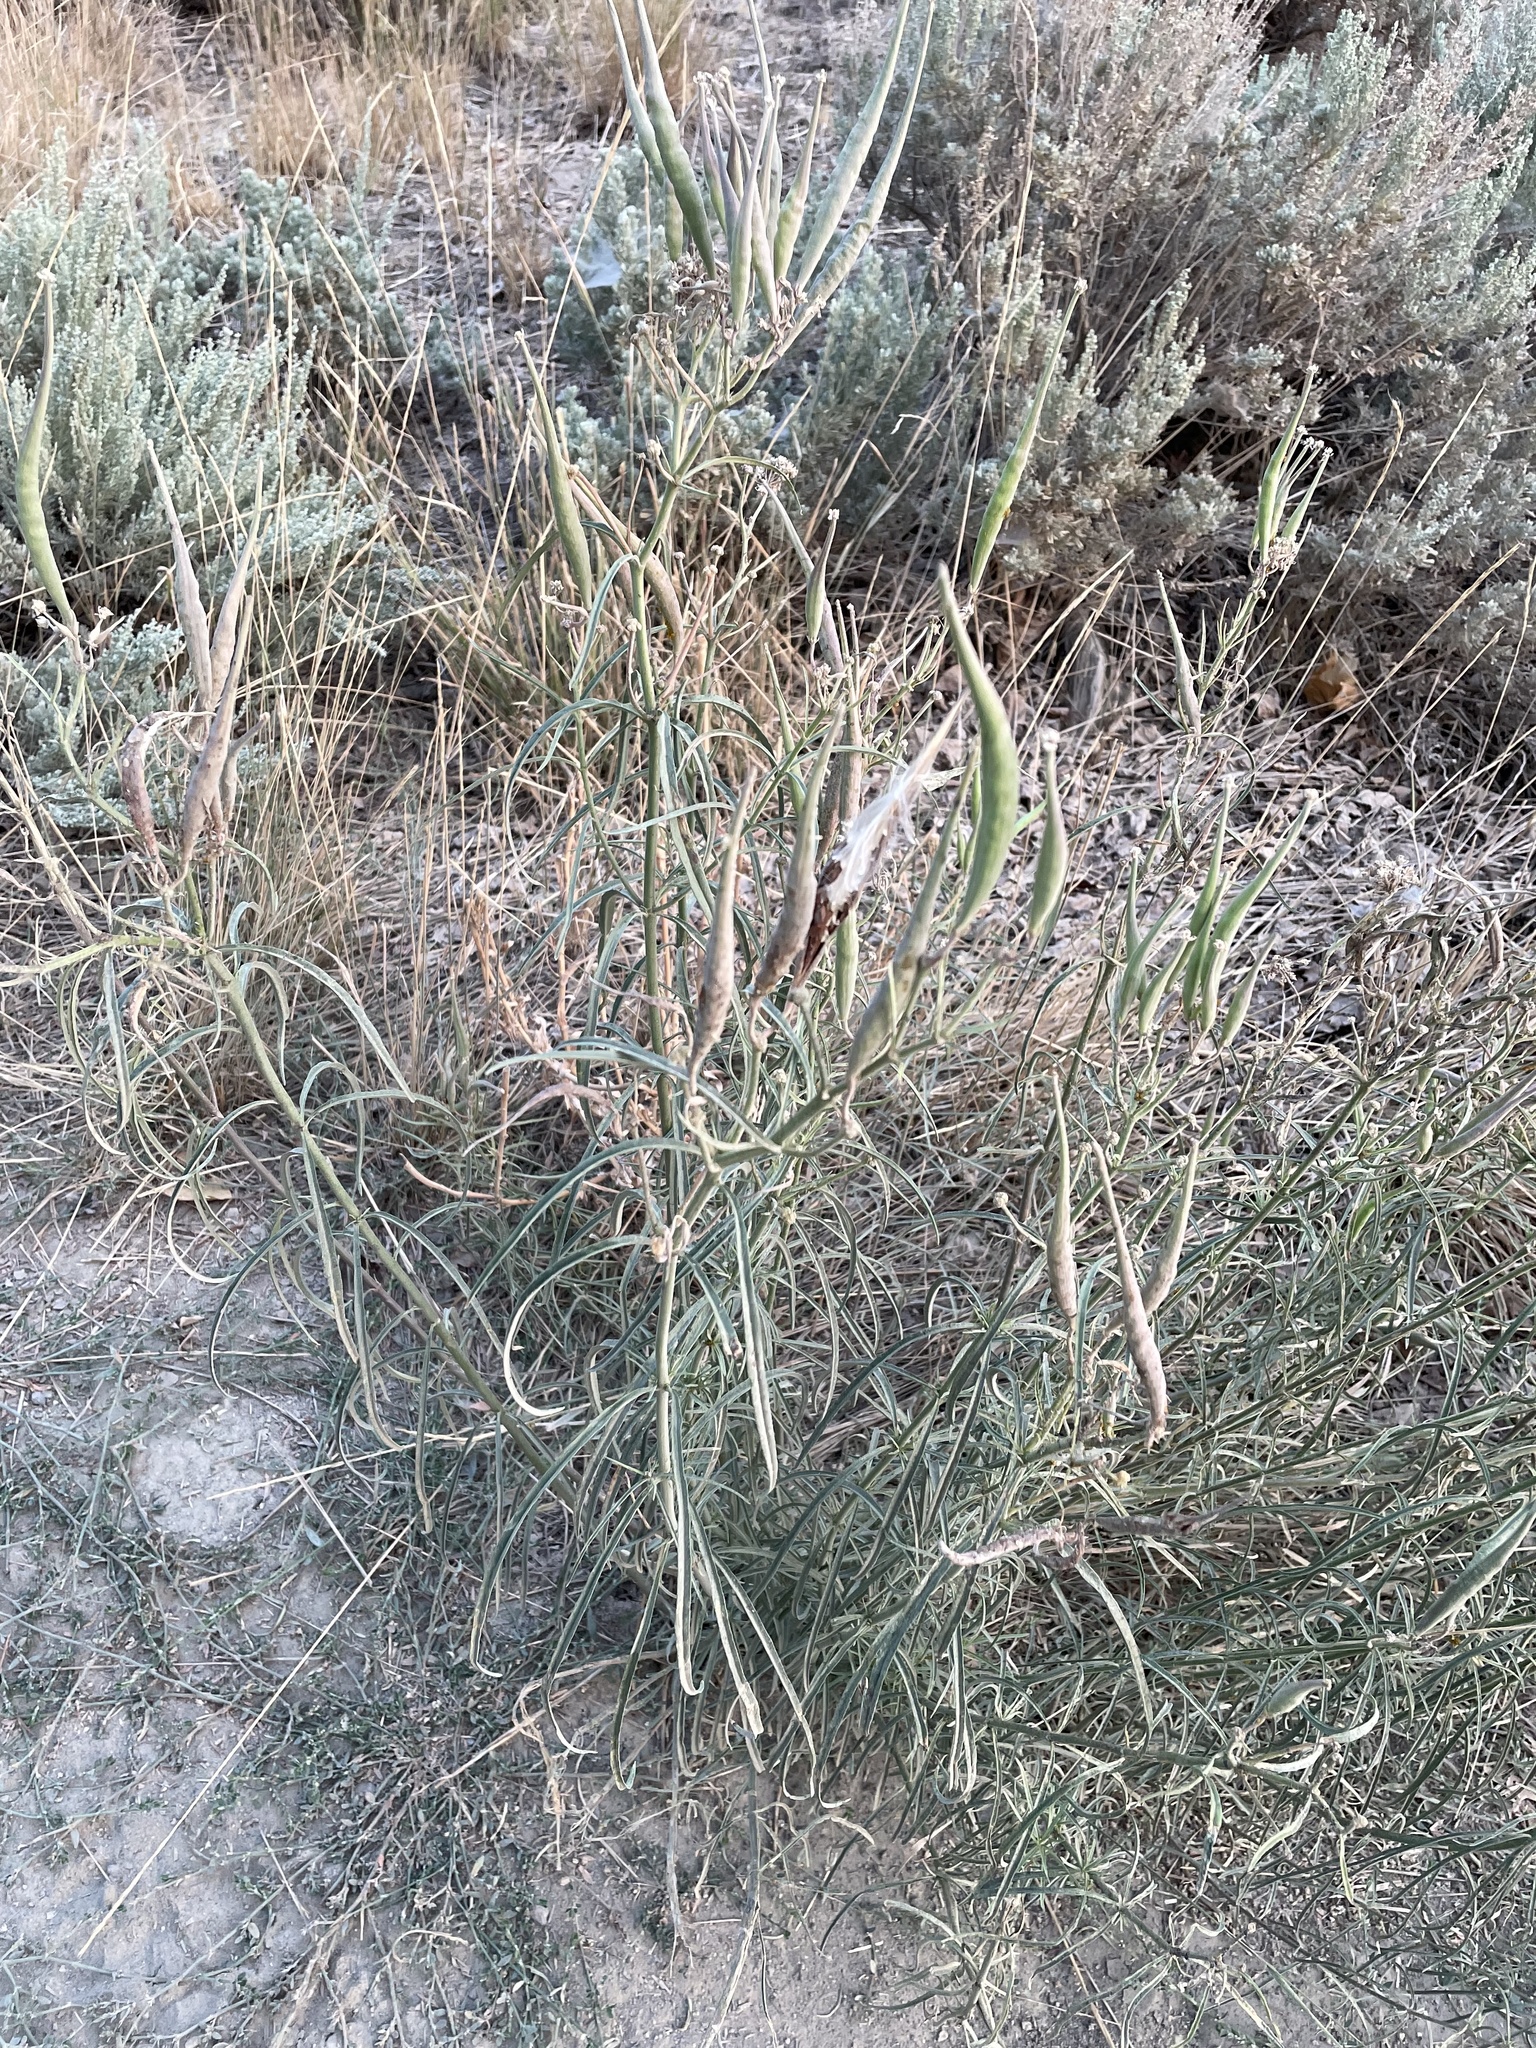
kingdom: Plantae
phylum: Tracheophyta
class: Magnoliopsida
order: Gentianales
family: Apocynaceae
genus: Asclepias
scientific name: Asclepias fascicularis
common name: Mexican milkweed
